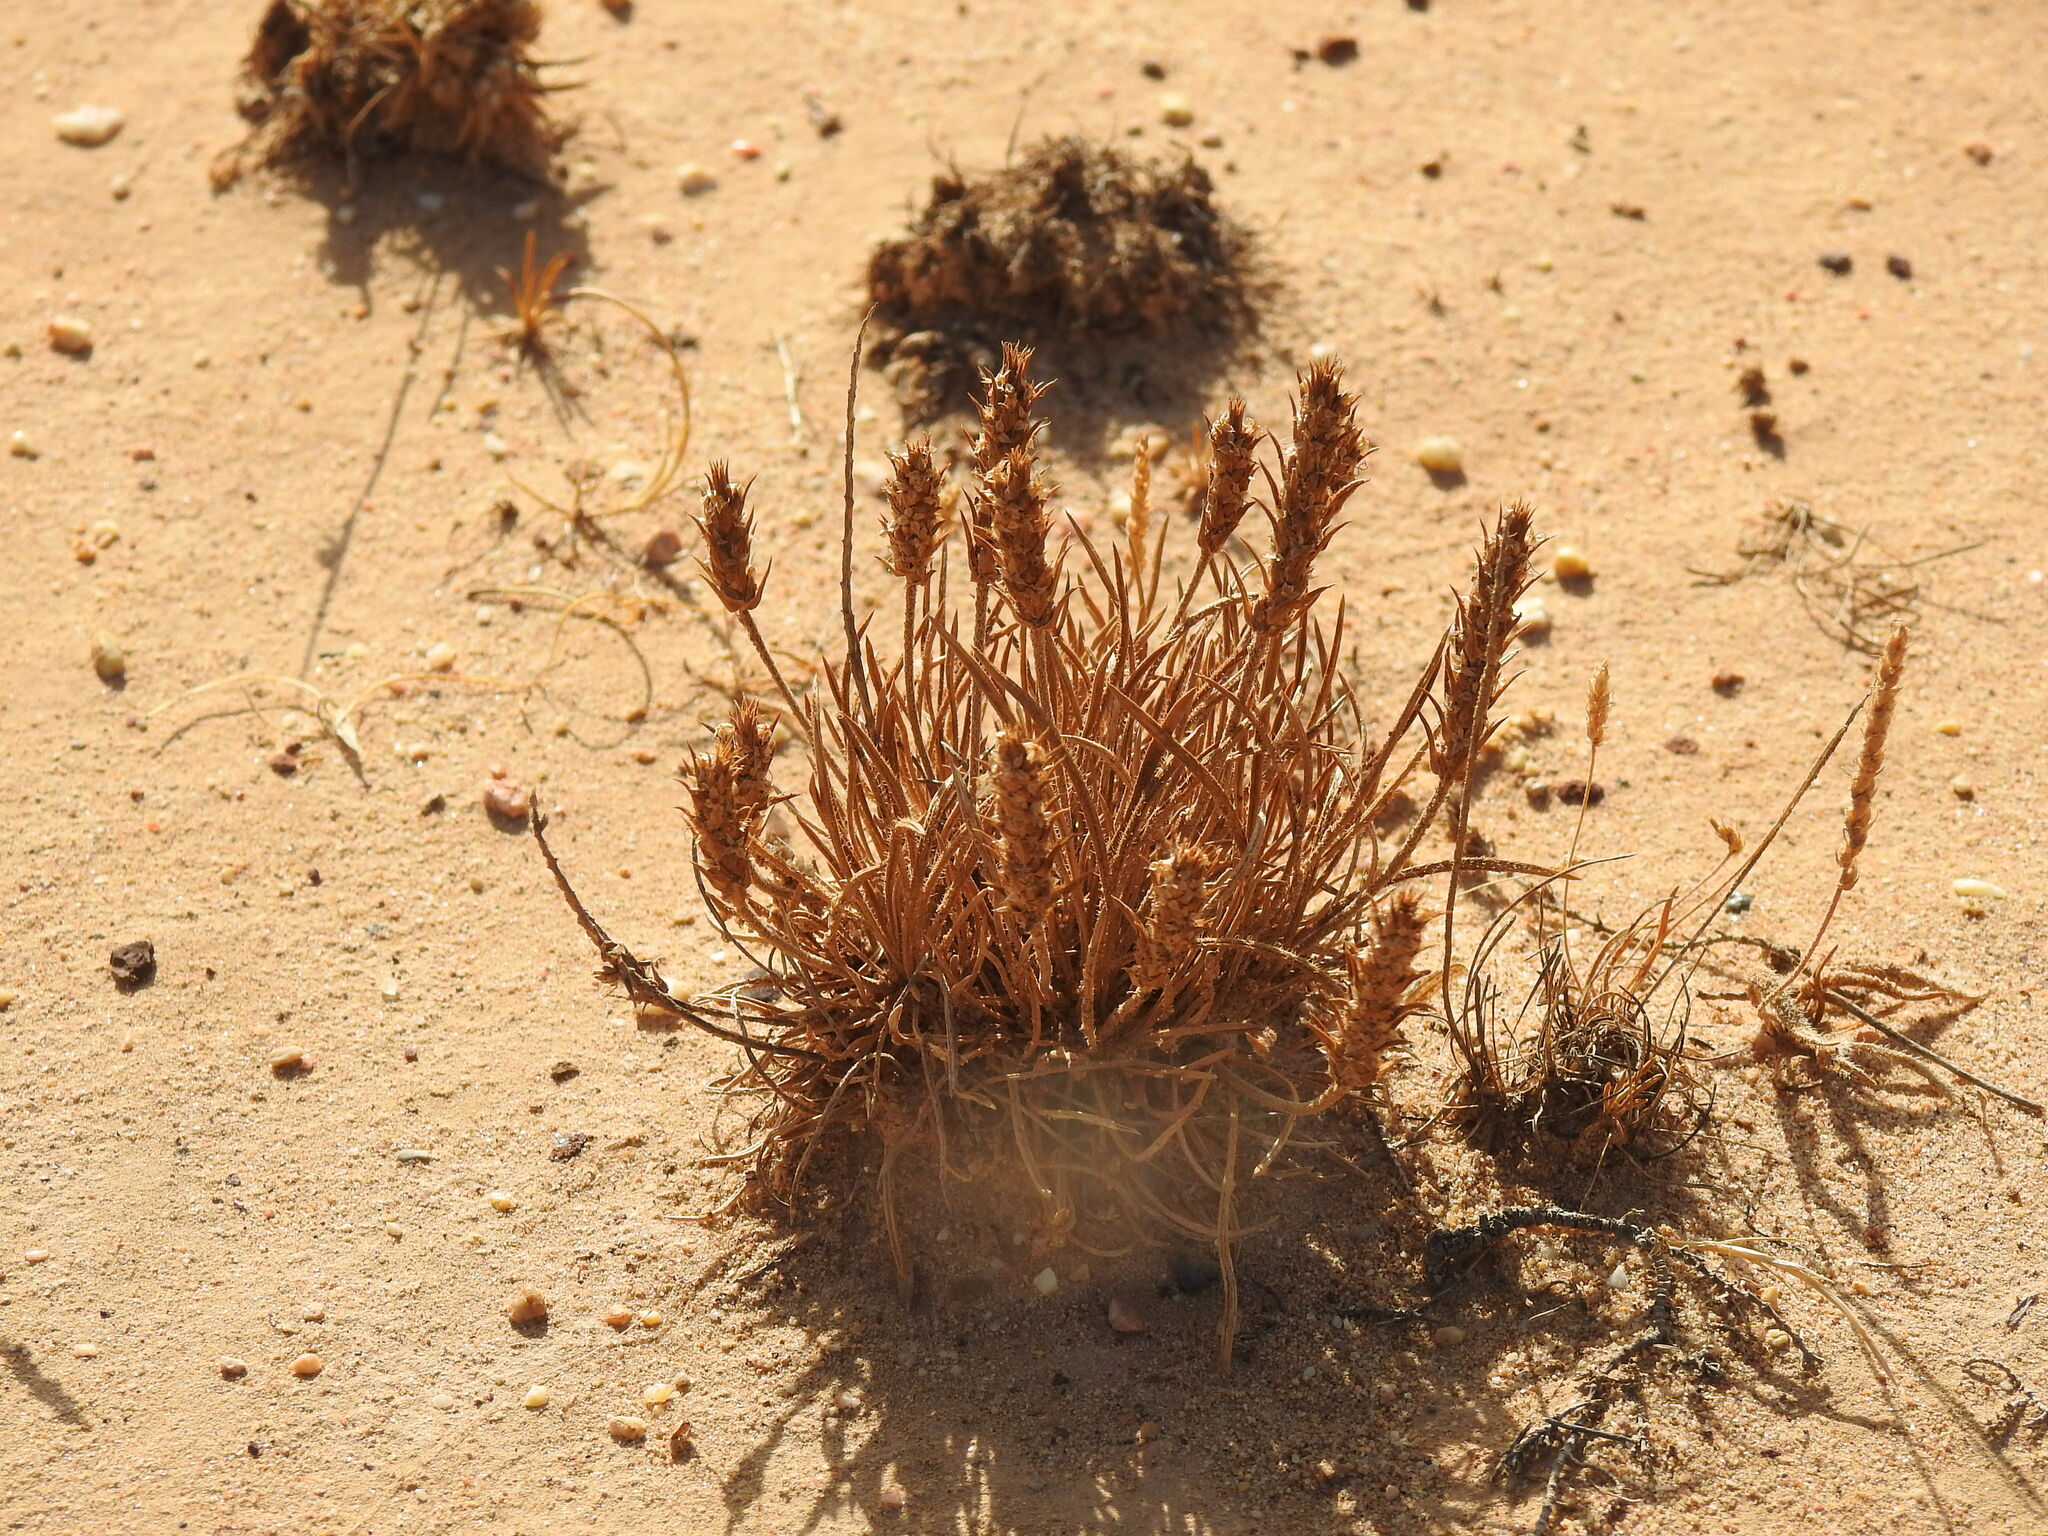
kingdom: Plantae
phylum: Tracheophyta
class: Magnoliopsida
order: Lamiales
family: Plantaginaceae
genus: Plantago
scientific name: Plantago algarbiensis
